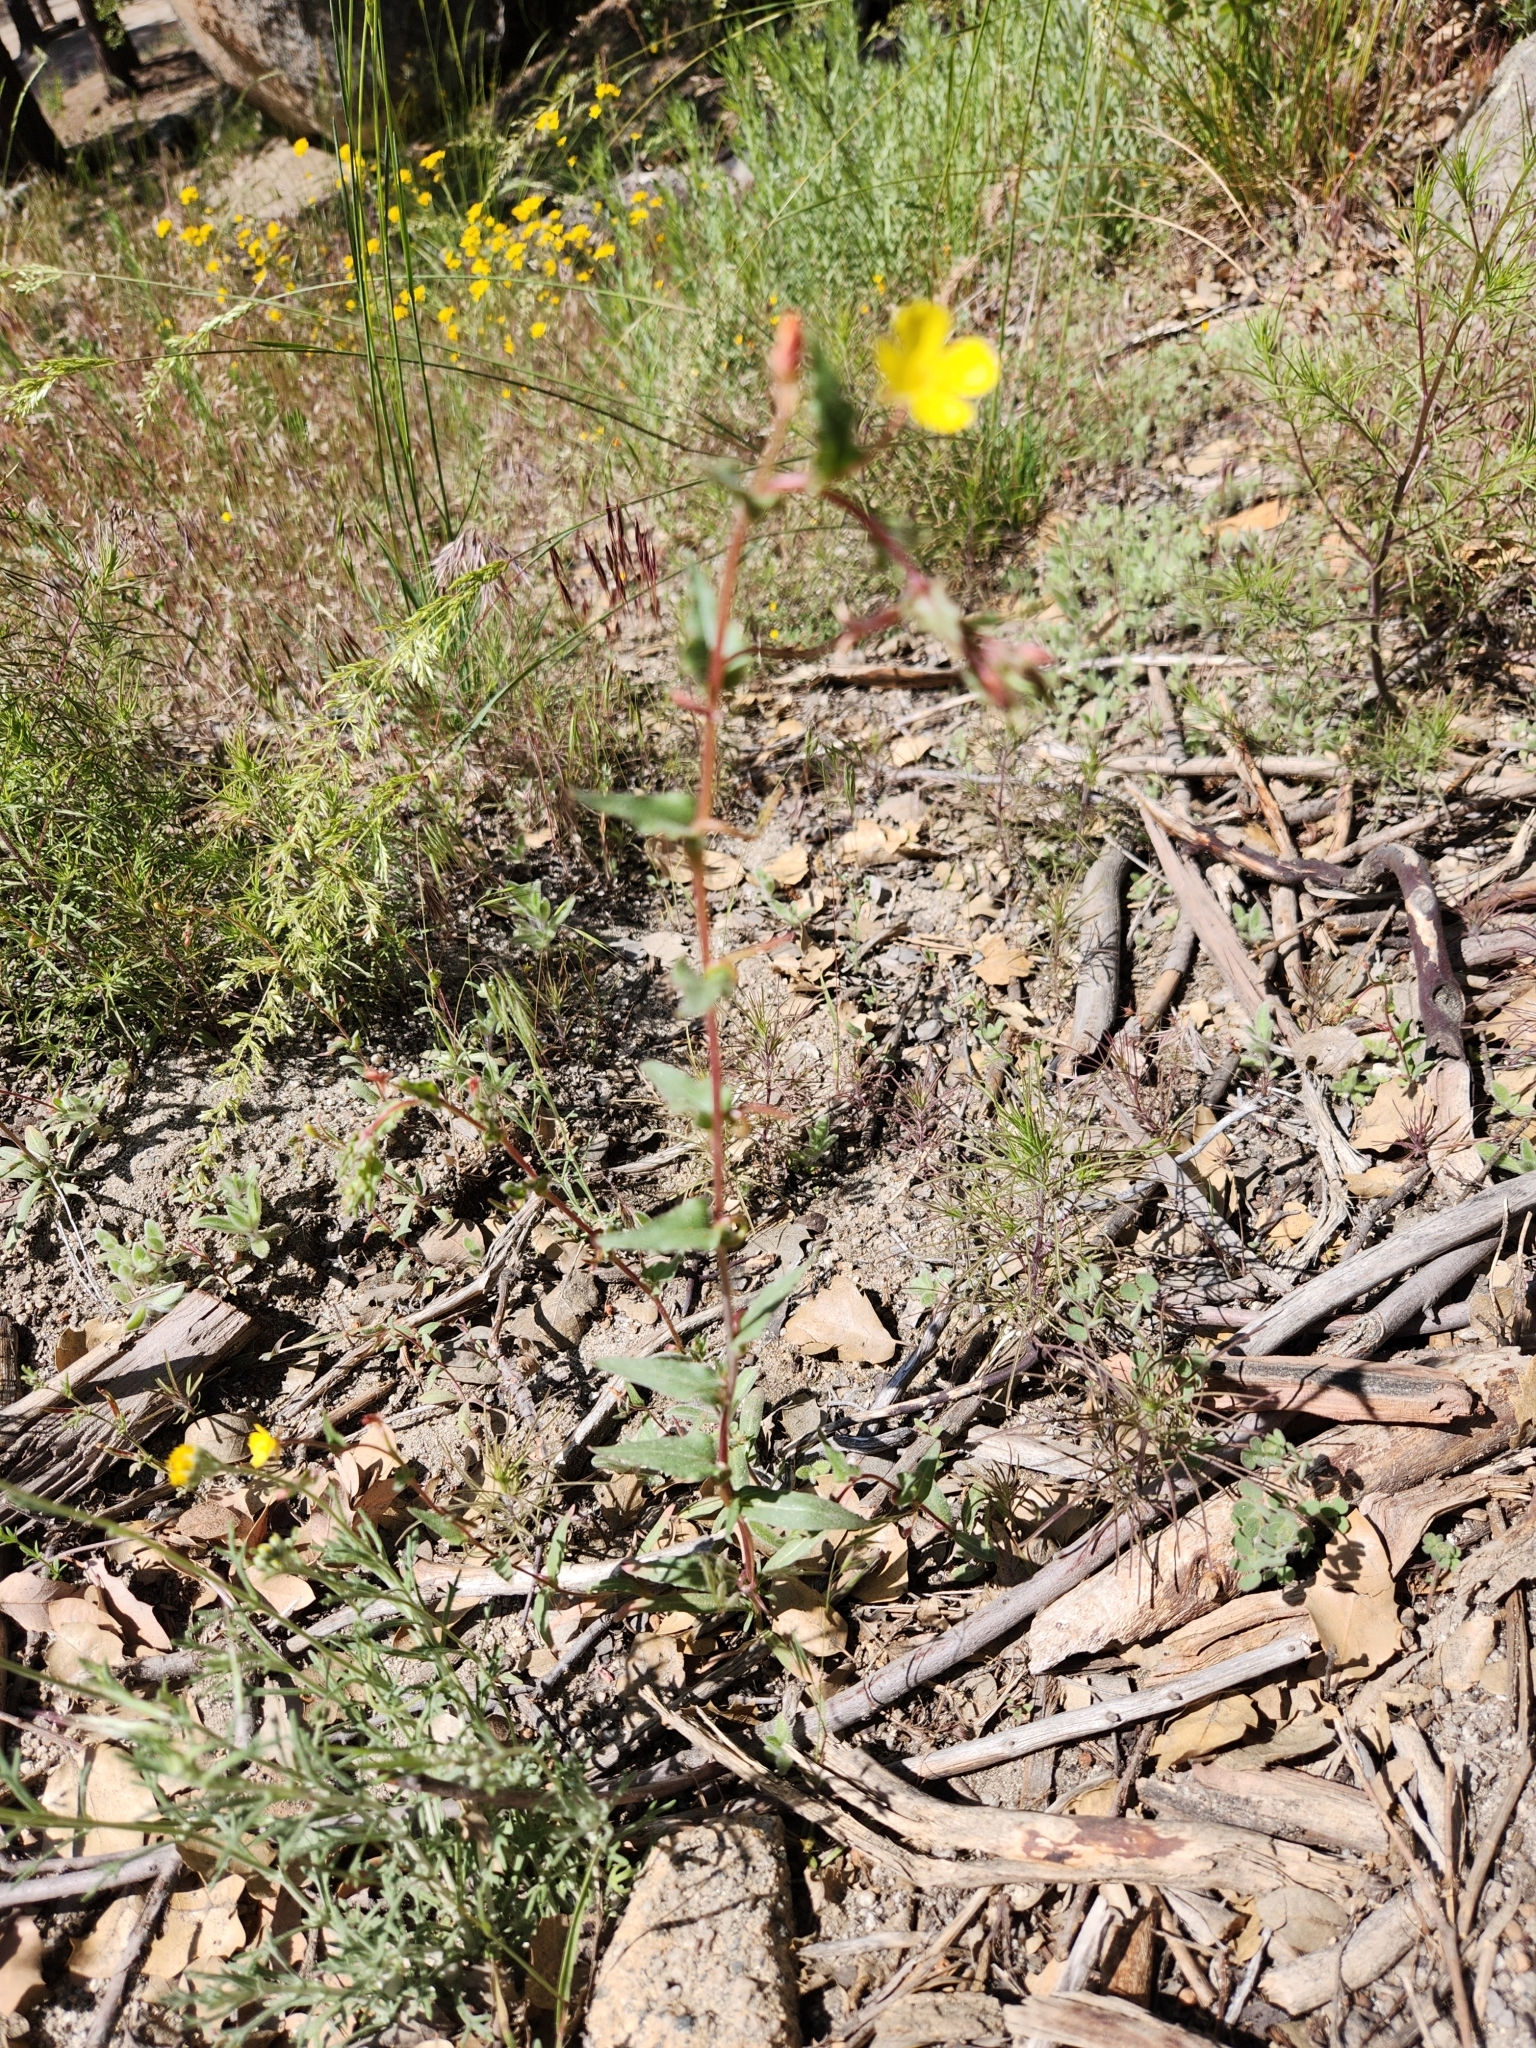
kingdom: Plantae
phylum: Tracheophyta
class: Magnoliopsida
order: Myrtales
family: Onagraceae
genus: Camissoniopsis
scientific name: Camissoniopsis hirtella
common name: Santa cruz island suncup
